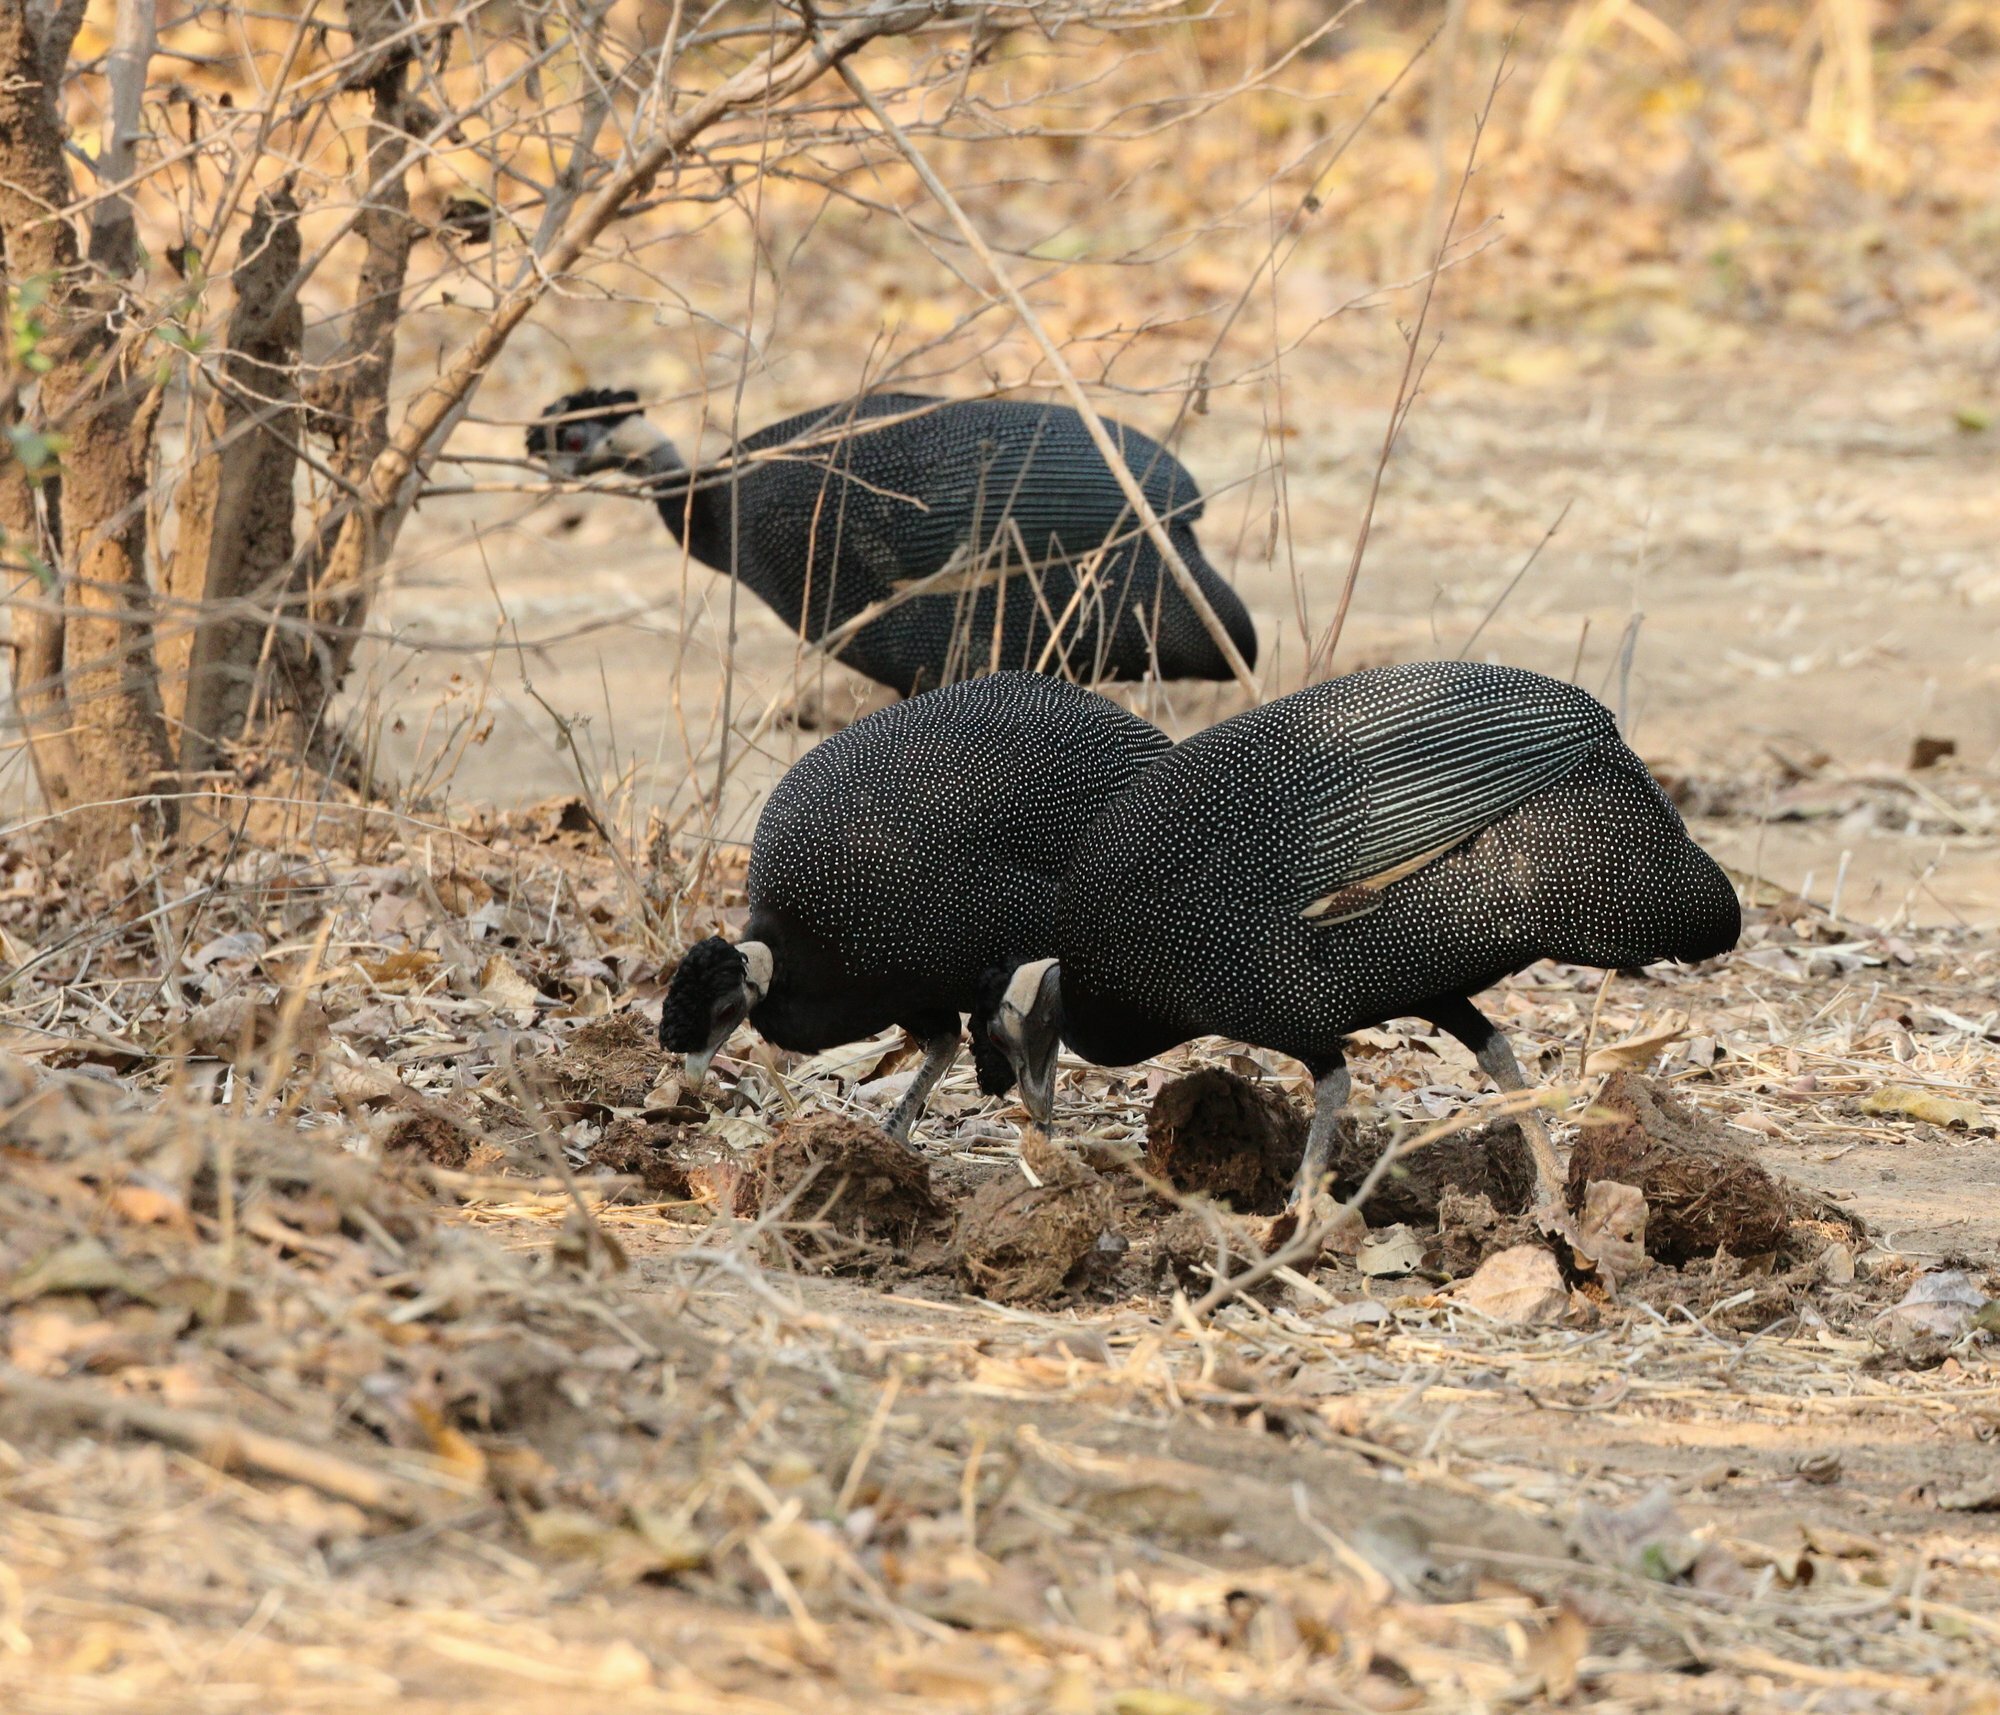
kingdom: Animalia
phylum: Chordata
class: Aves
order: Galliformes
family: Numididae
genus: Guttera
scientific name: Guttera pucherani
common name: Crested guineafowl
